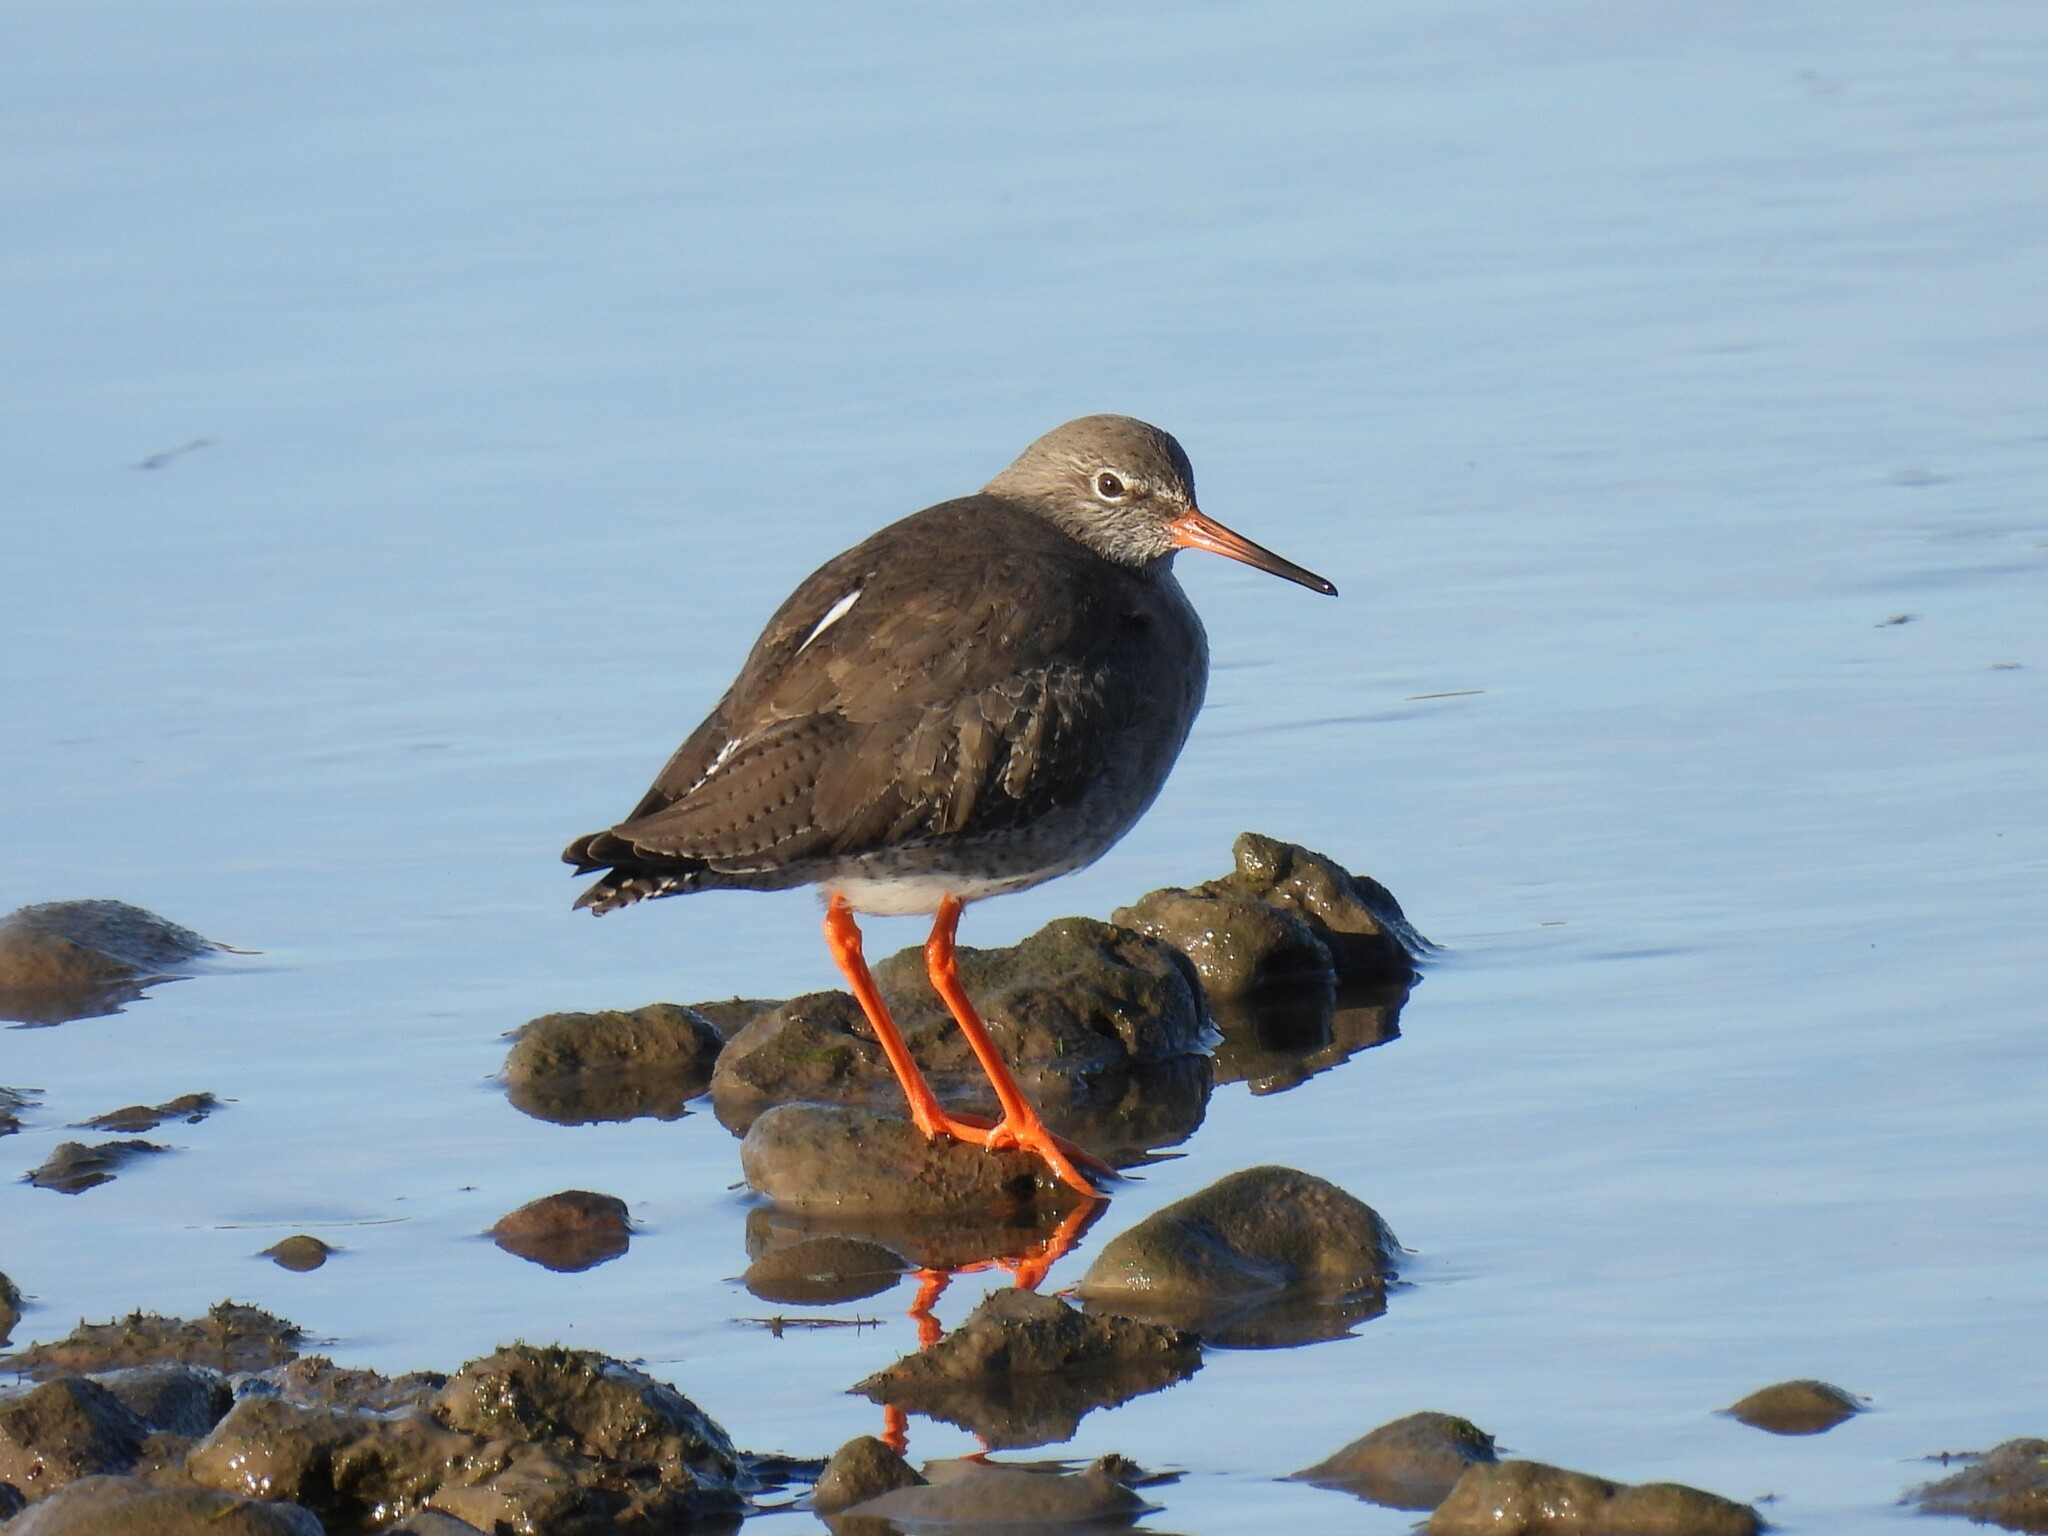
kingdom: Animalia
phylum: Chordata
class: Aves
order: Charadriiformes
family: Scolopacidae
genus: Tringa
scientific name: Tringa totanus
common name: Common redshank
